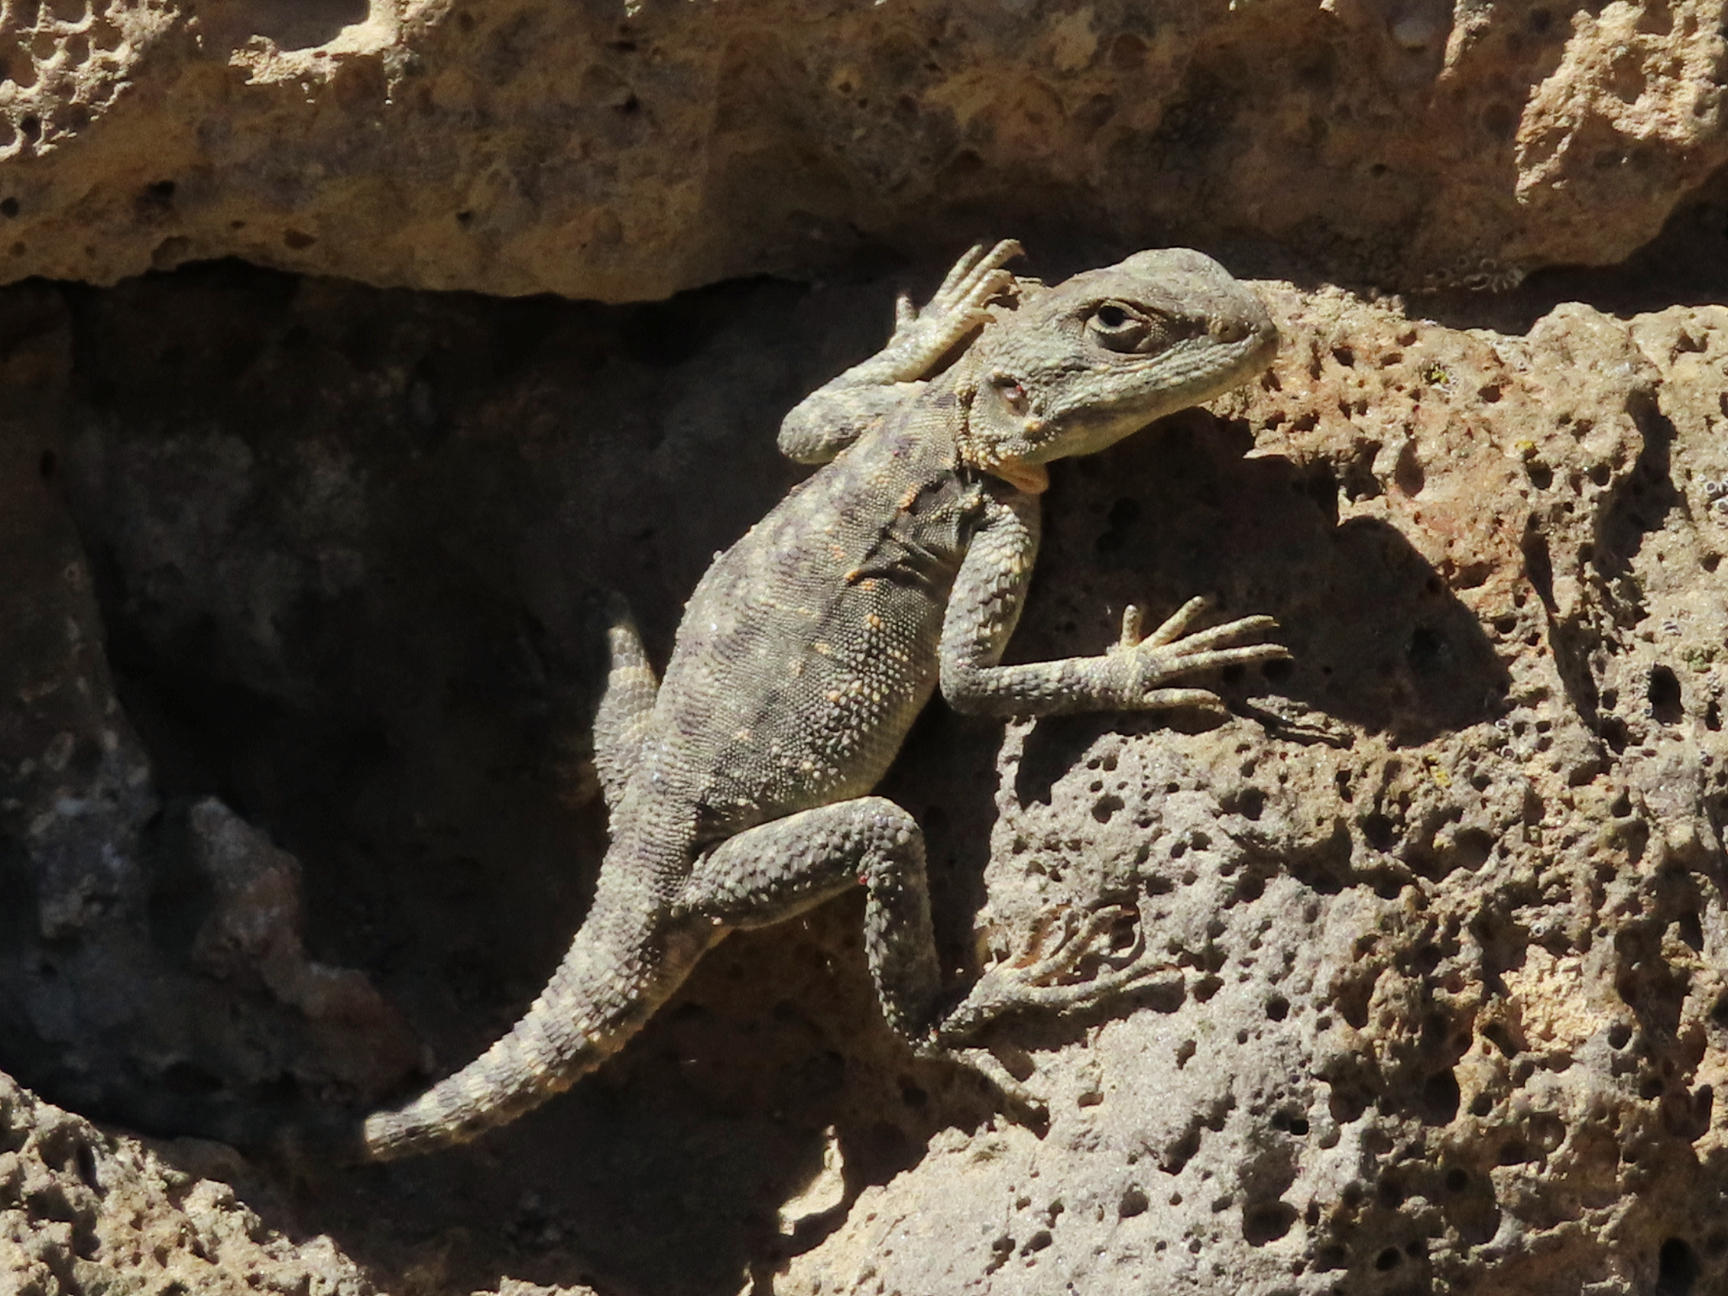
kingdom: Animalia
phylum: Chordata
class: Squamata
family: Agamidae
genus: Paralaudakia
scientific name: Paralaudakia caucasia
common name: Caucasian agama
